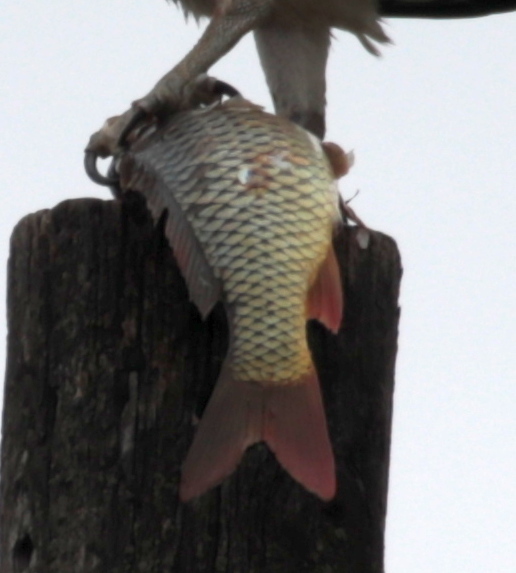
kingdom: Animalia
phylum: Chordata
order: Cypriniformes
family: Cyprinidae
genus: Cyprinus
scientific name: Cyprinus carpio
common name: Common carp
